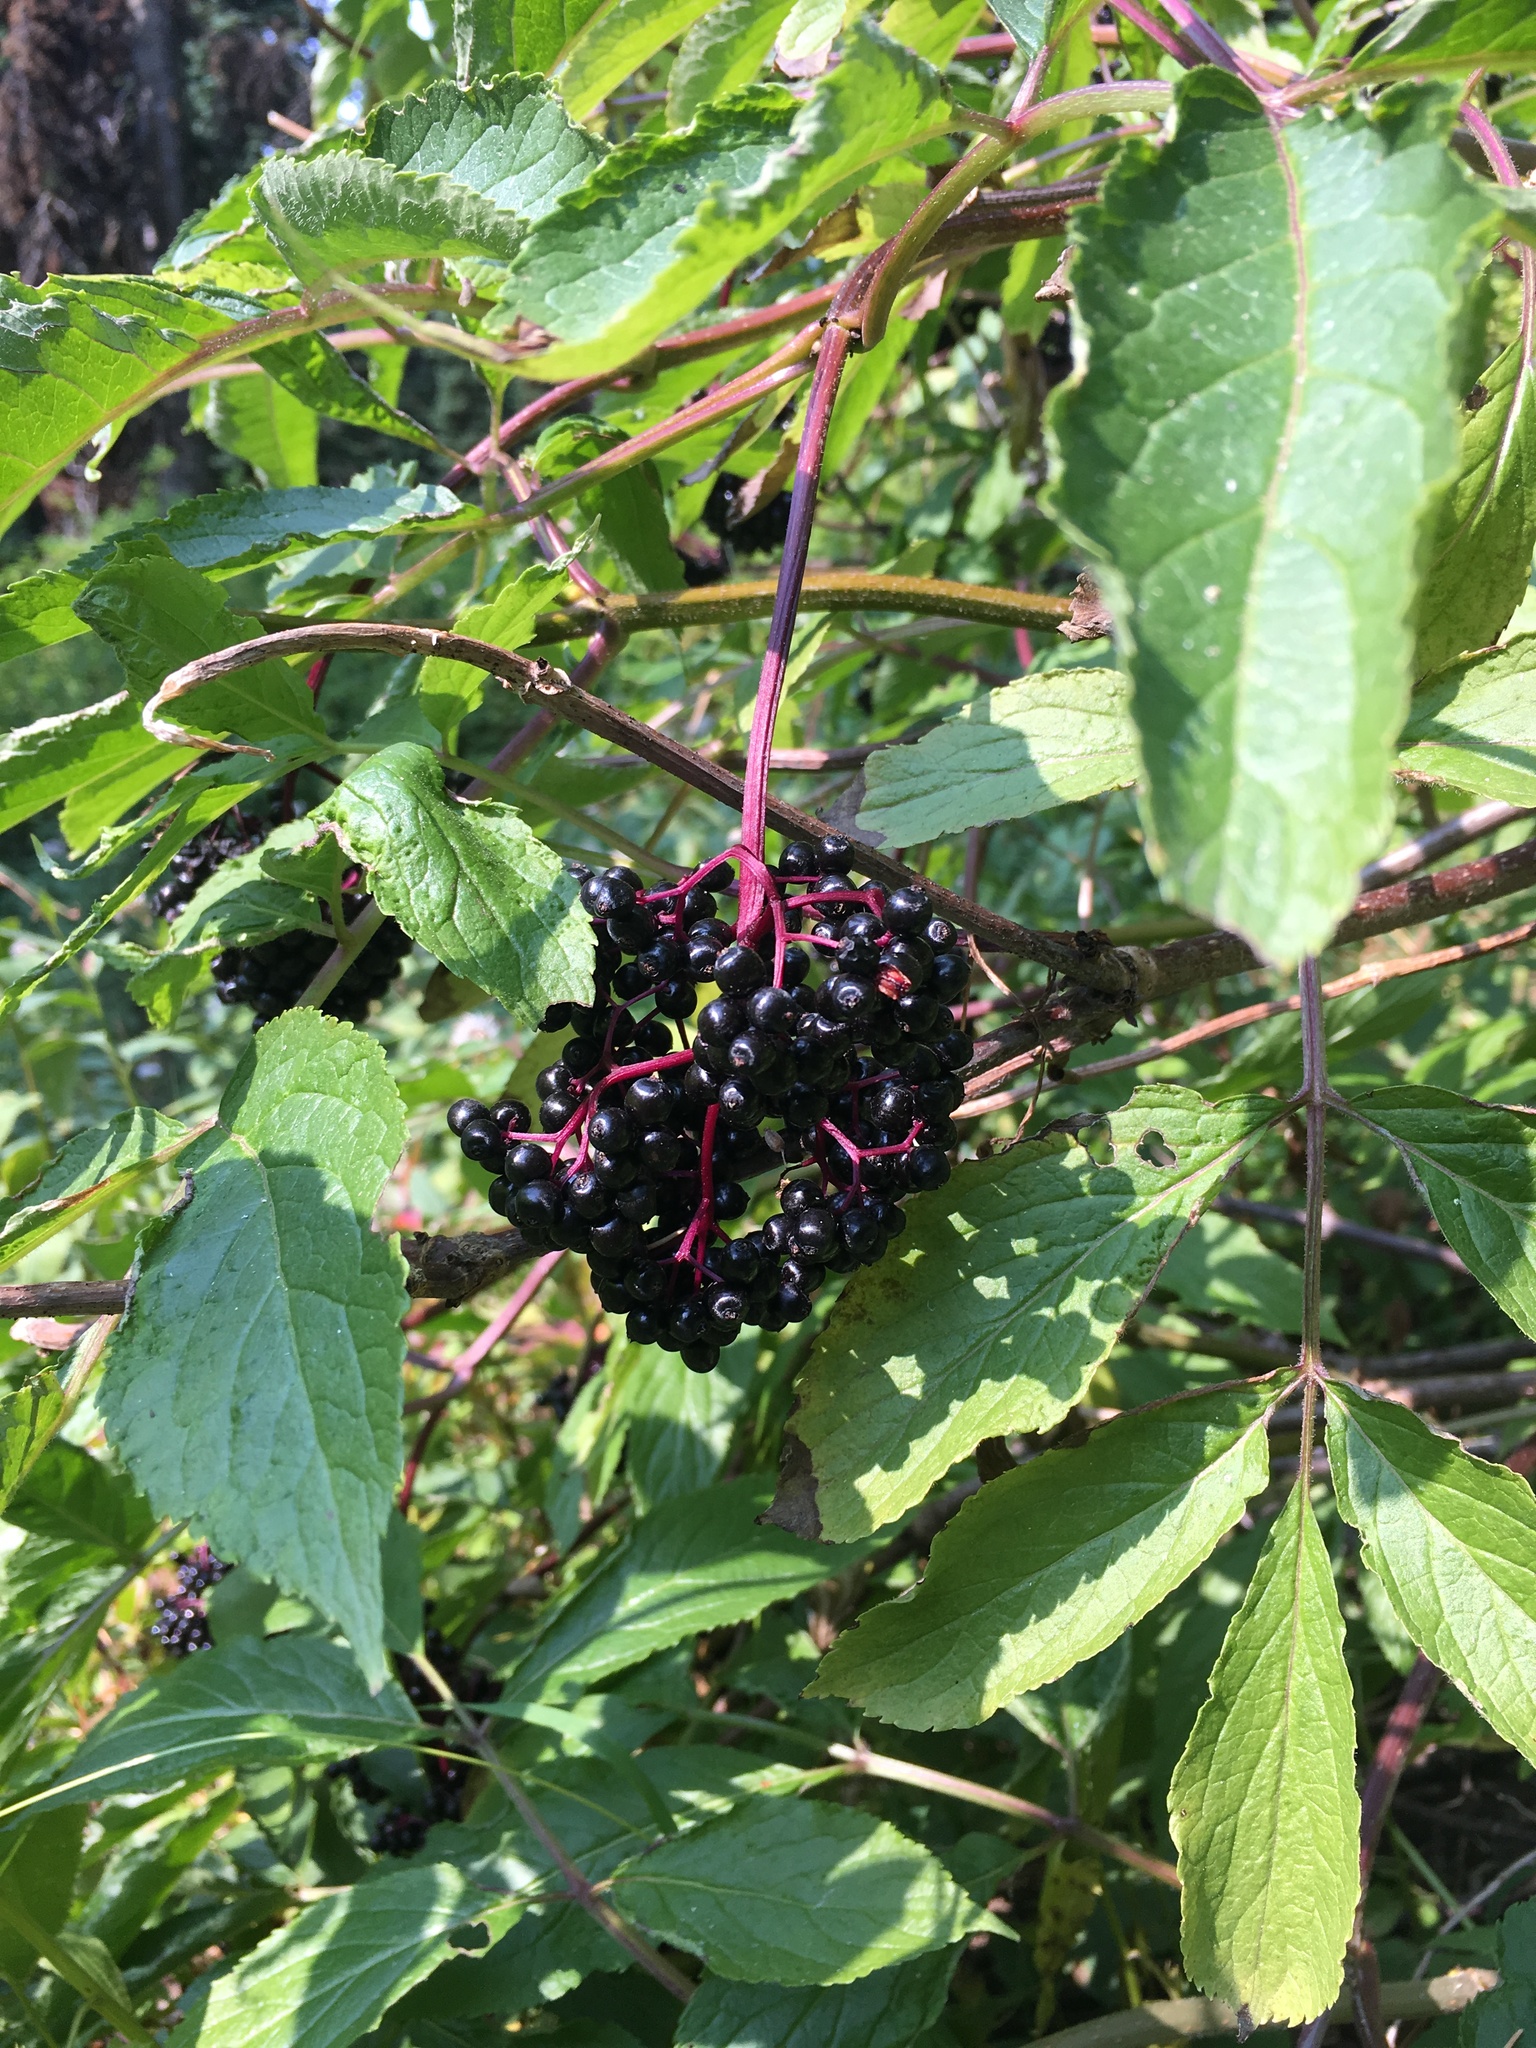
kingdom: Plantae
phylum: Tracheophyta
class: Magnoliopsida
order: Dipsacales
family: Viburnaceae
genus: Sambucus
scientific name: Sambucus racemosa
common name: Red-berried elder
